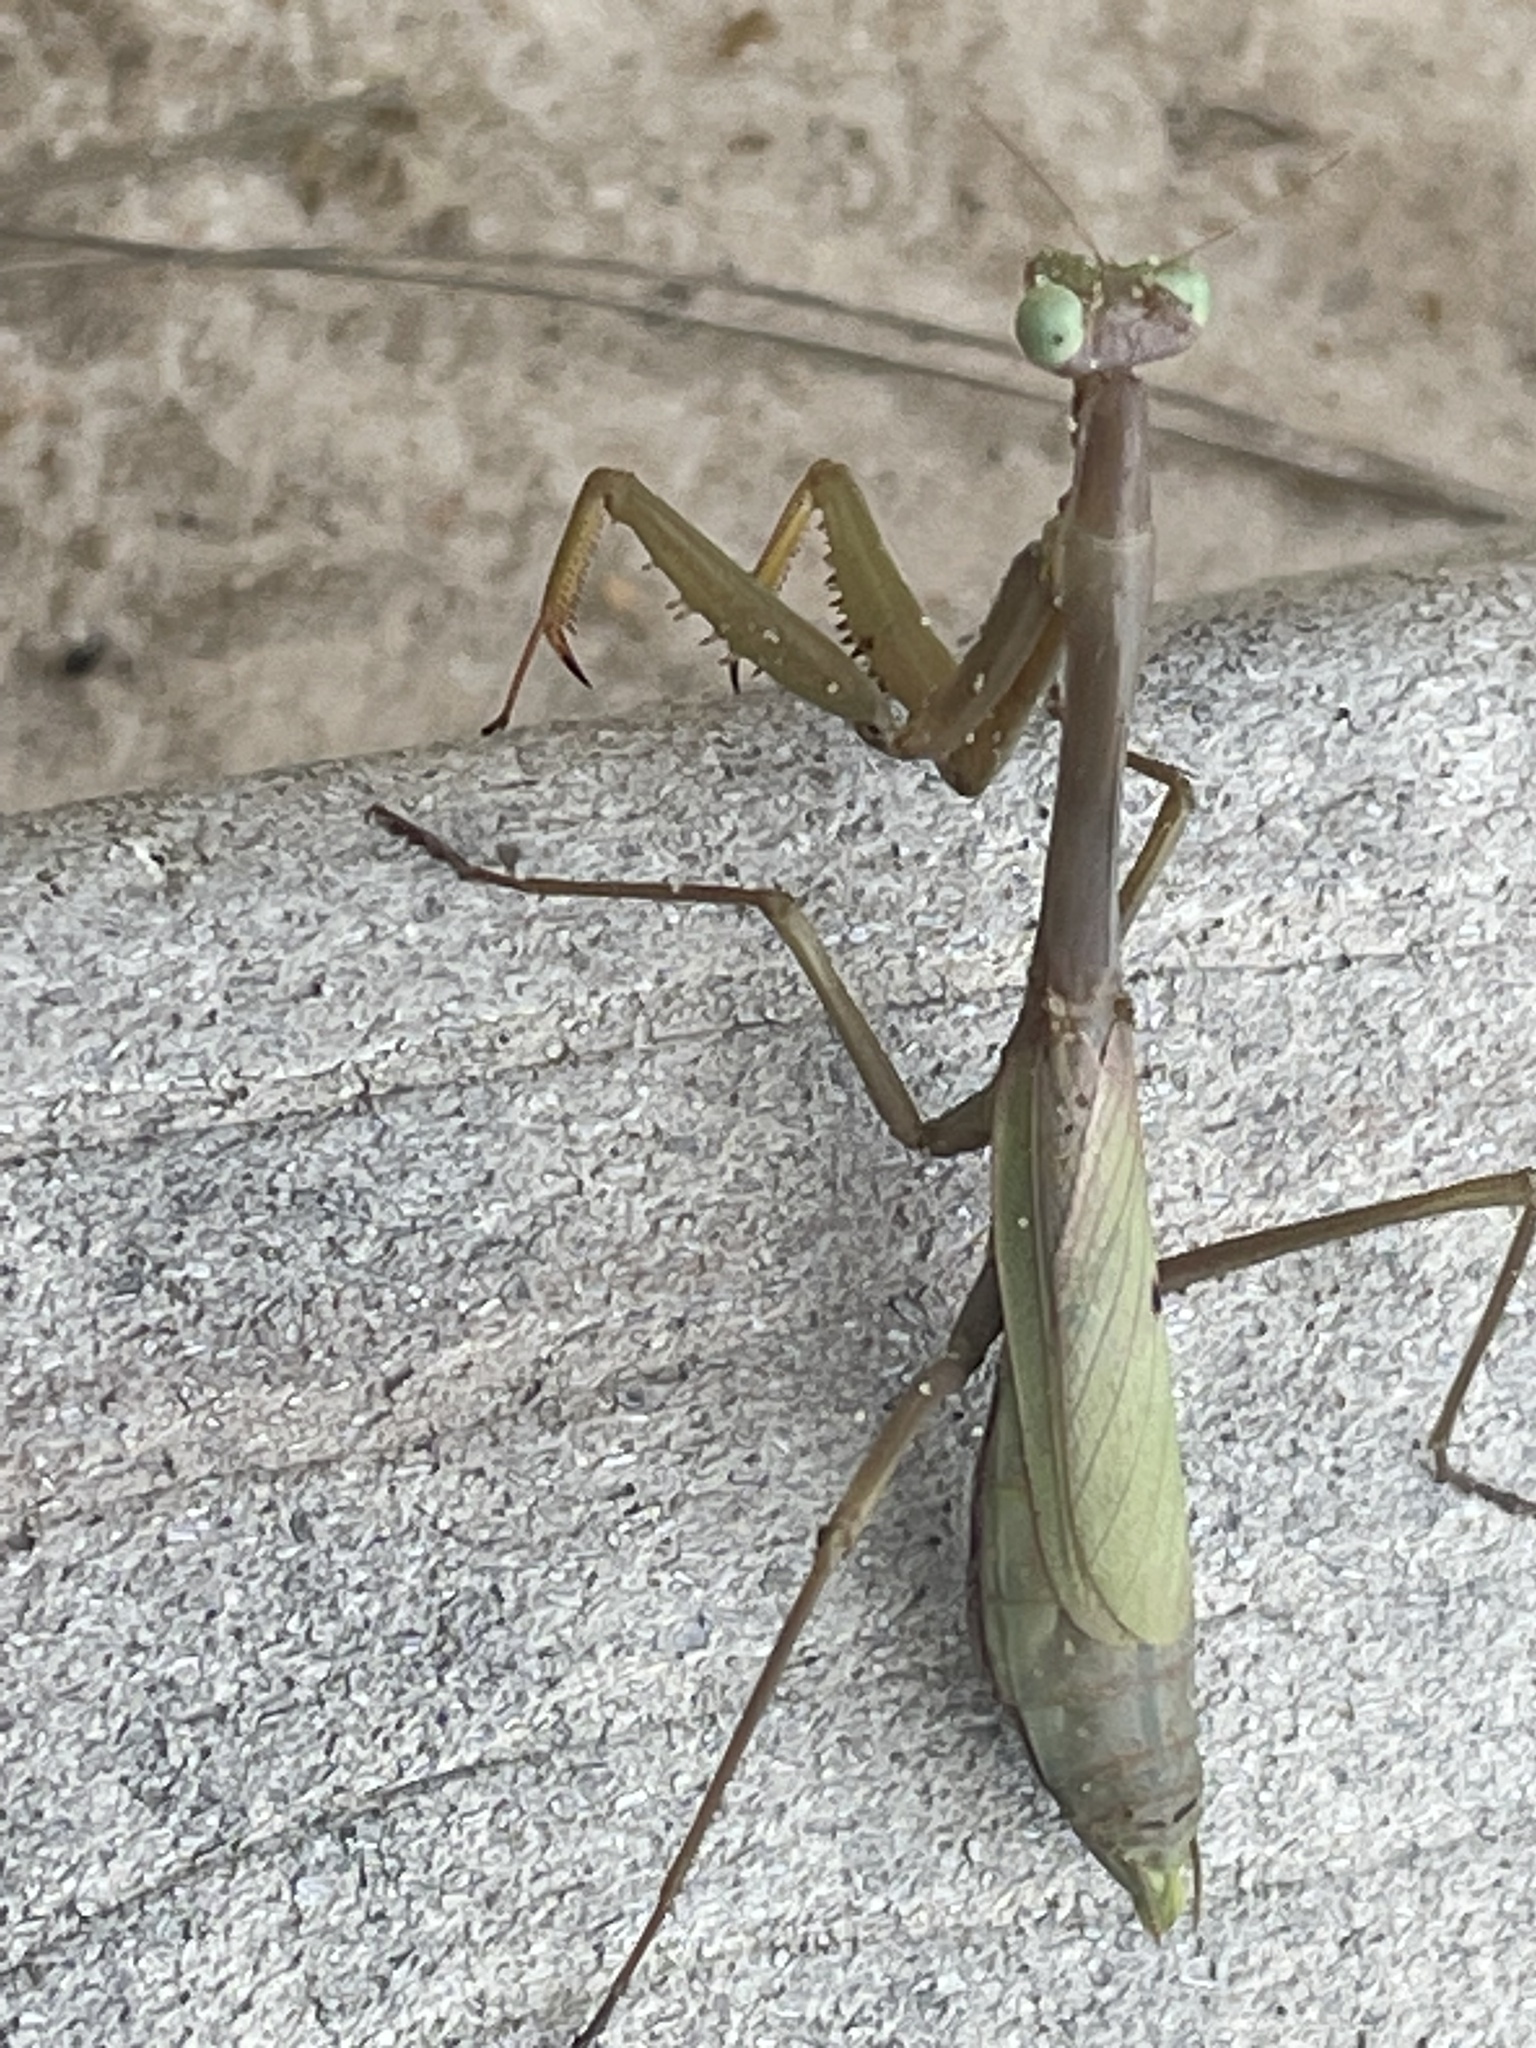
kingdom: Animalia
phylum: Arthropoda
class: Insecta
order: Mantodea
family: Mantidae
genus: Stagmomantis
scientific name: Stagmomantis carolina
